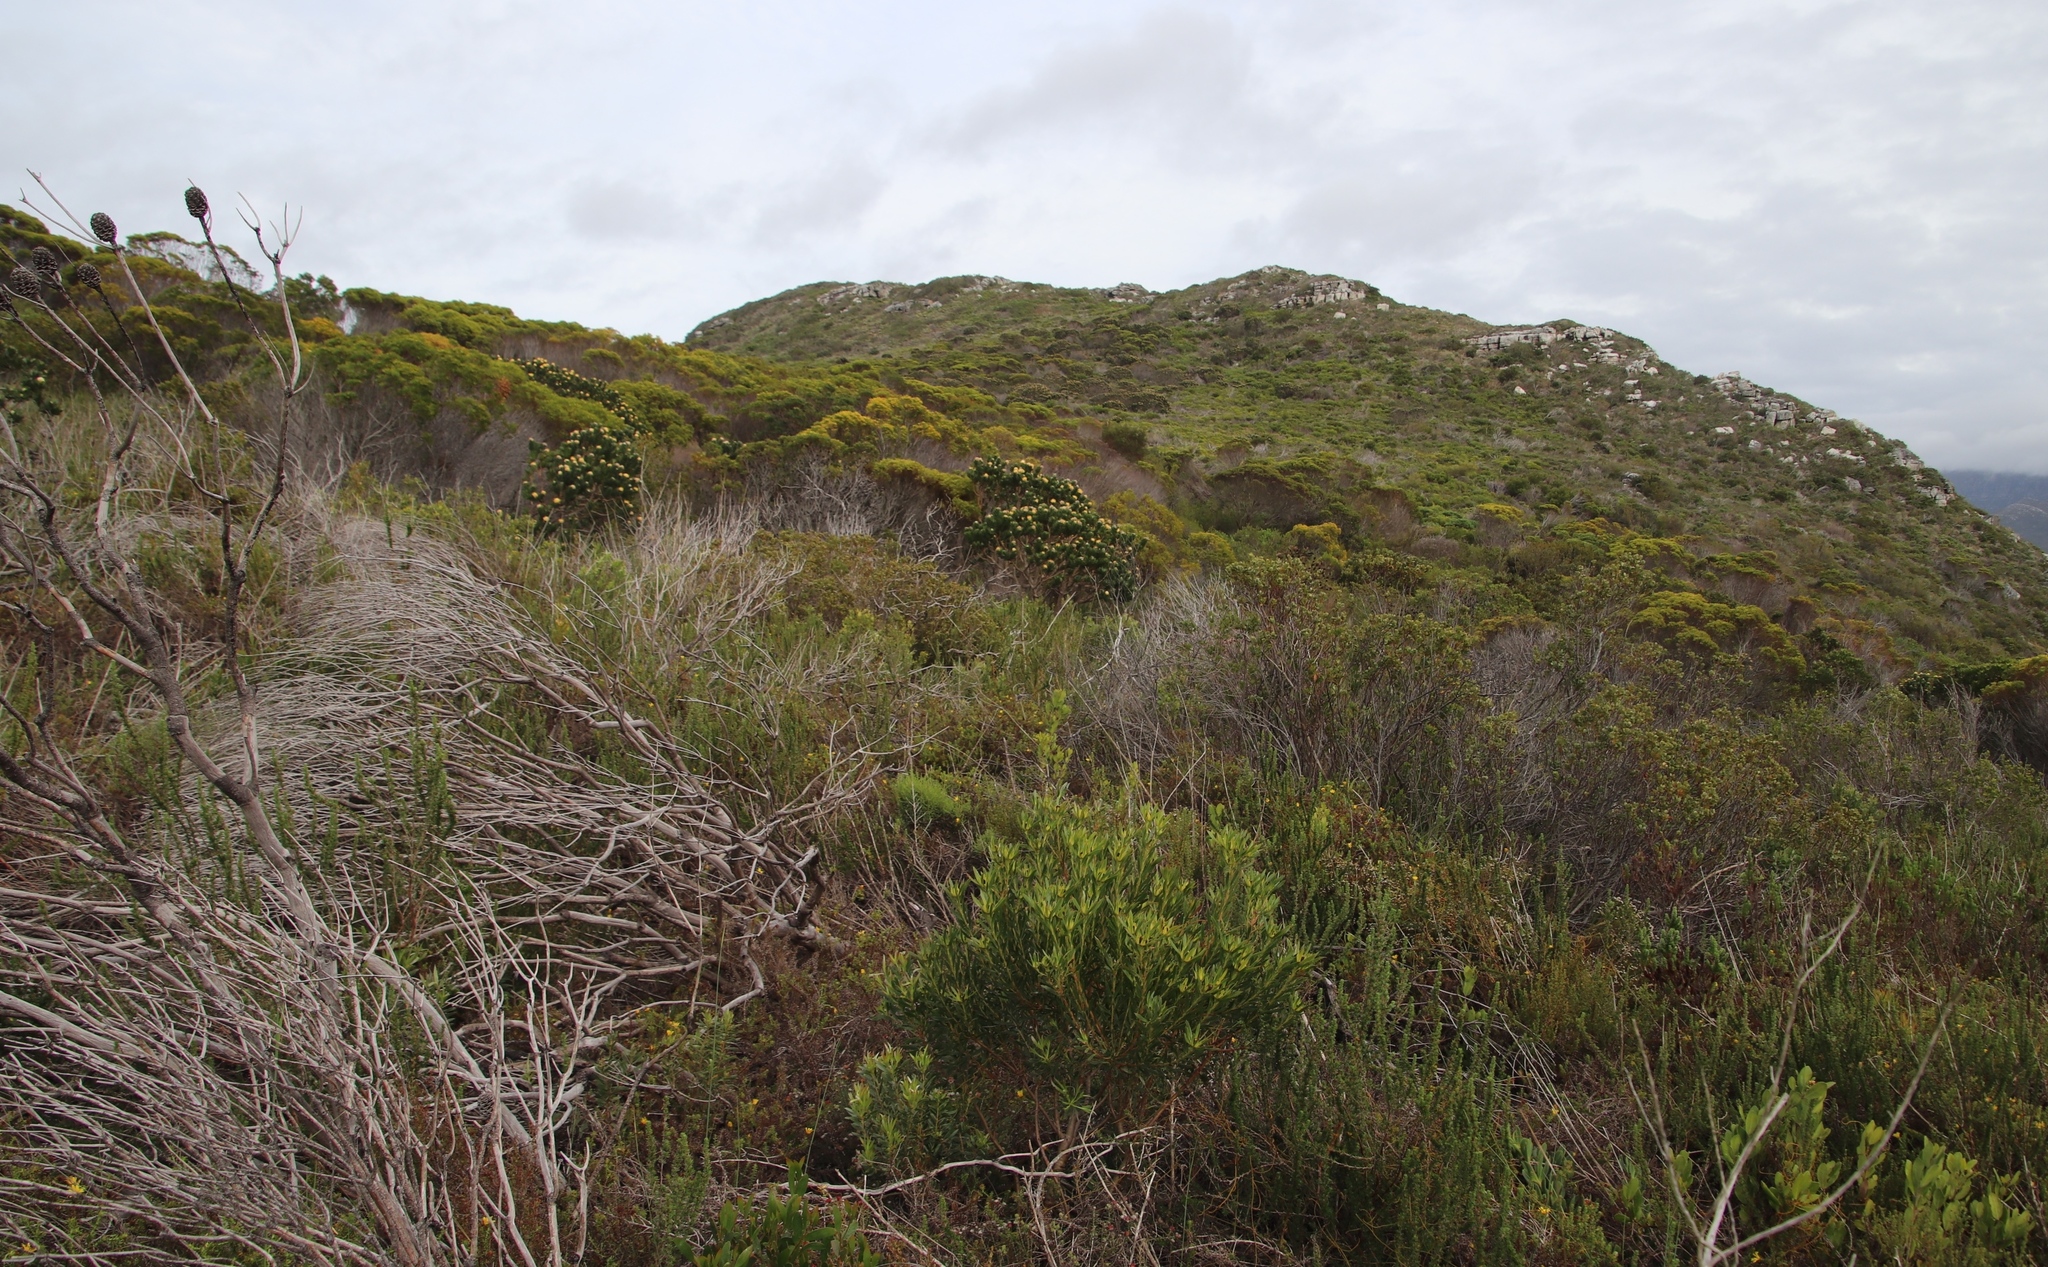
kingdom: Plantae
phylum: Tracheophyta
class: Magnoliopsida
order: Proteales
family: Proteaceae
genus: Leucospermum
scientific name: Leucospermum conocarpodendron
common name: Tree pincushion
